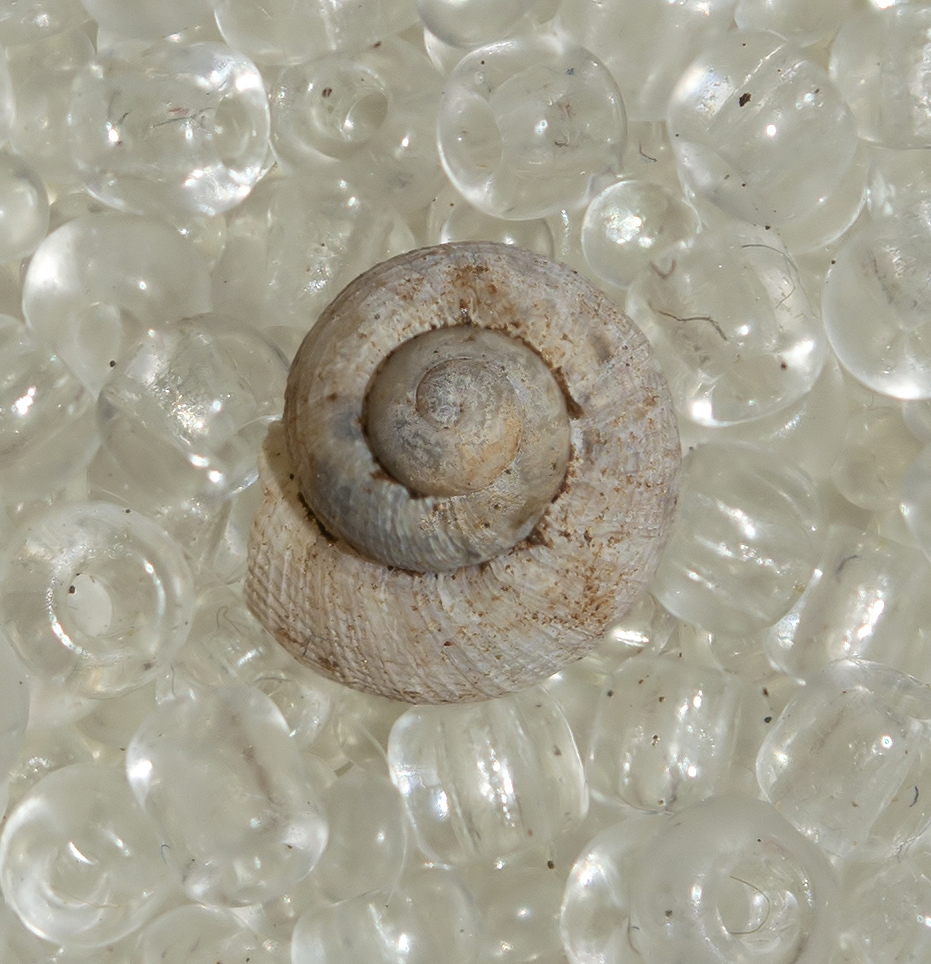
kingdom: Animalia
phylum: Mollusca
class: Gastropoda
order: Littorinimorpha
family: Pomatiidae
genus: Pomatias
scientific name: Pomatias elegans
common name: Red-mouthed snail
